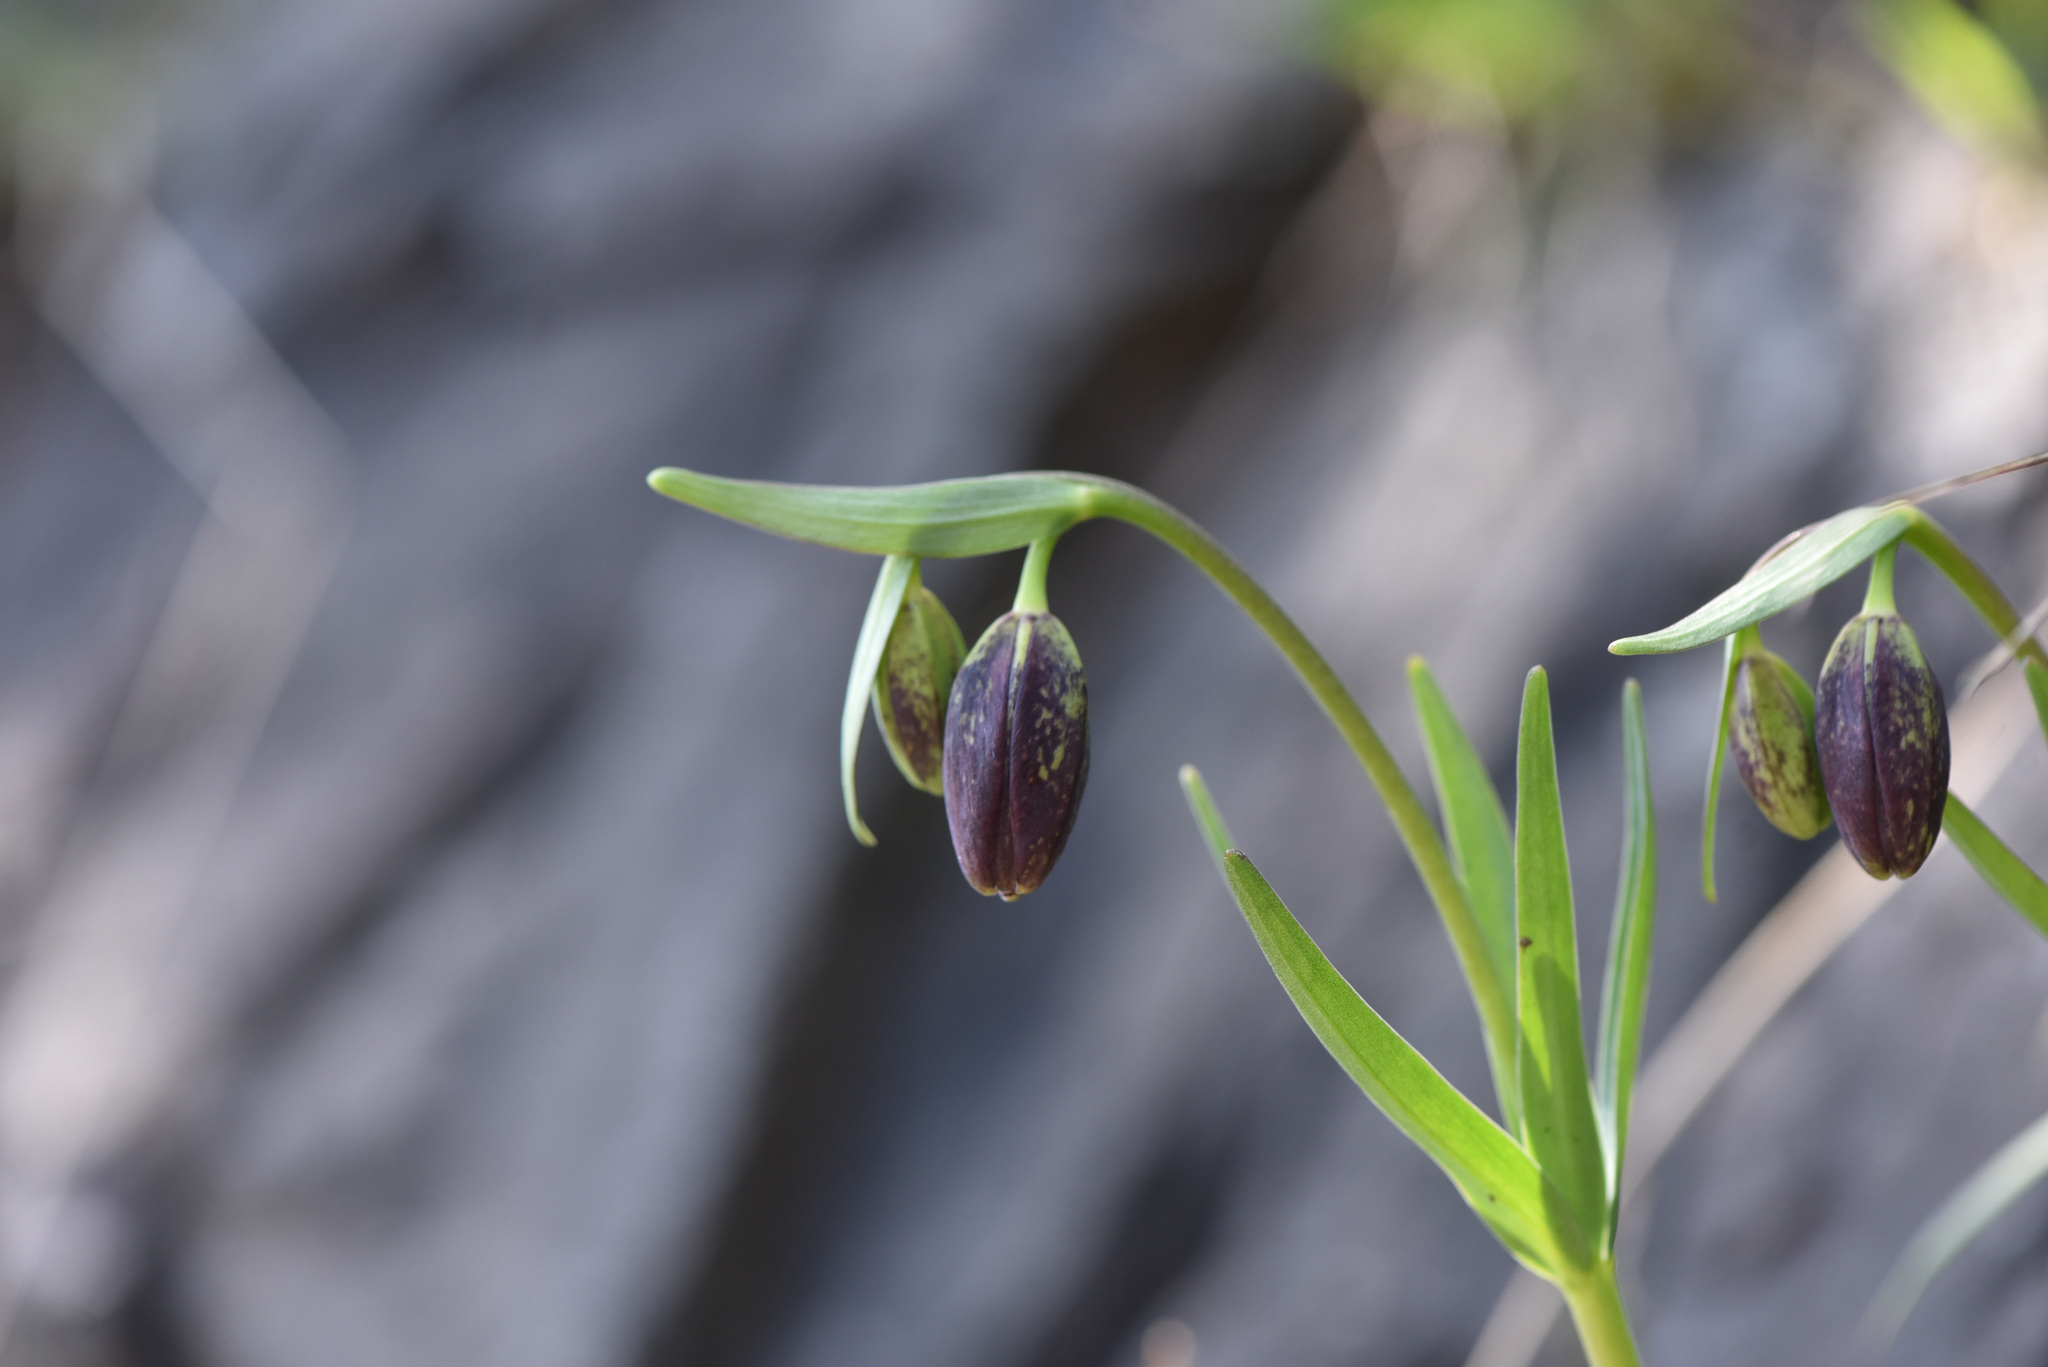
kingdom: Plantae
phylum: Tracheophyta
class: Liliopsida
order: Liliales
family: Liliaceae
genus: Fritillaria
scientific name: Fritillaria affinis
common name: Ojai fritillary
